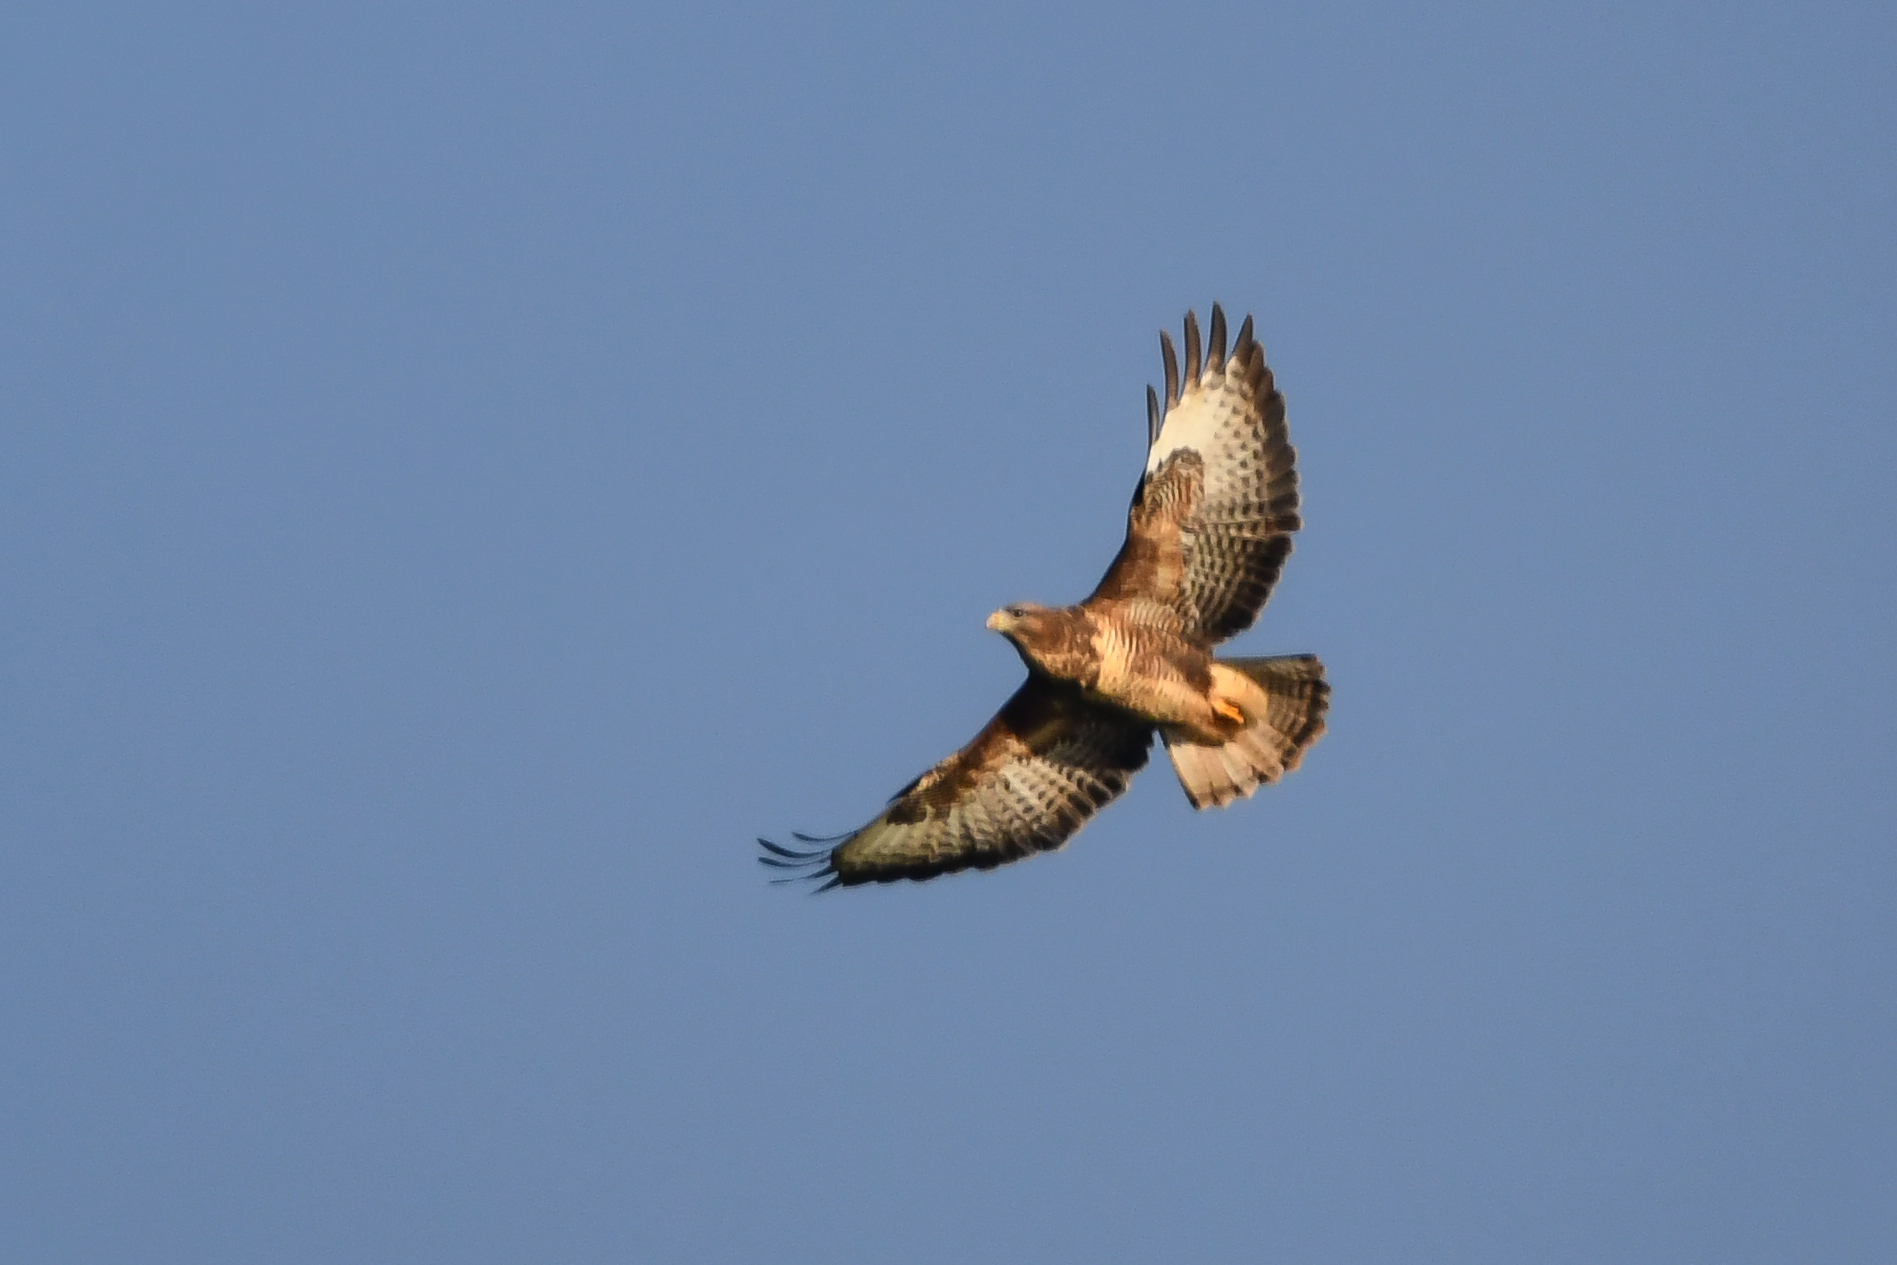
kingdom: Animalia
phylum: Chordata
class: Aves
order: Accipitriformes
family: Accipitridae
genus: Buteo
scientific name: Buteo buteo
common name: Common buzzard
